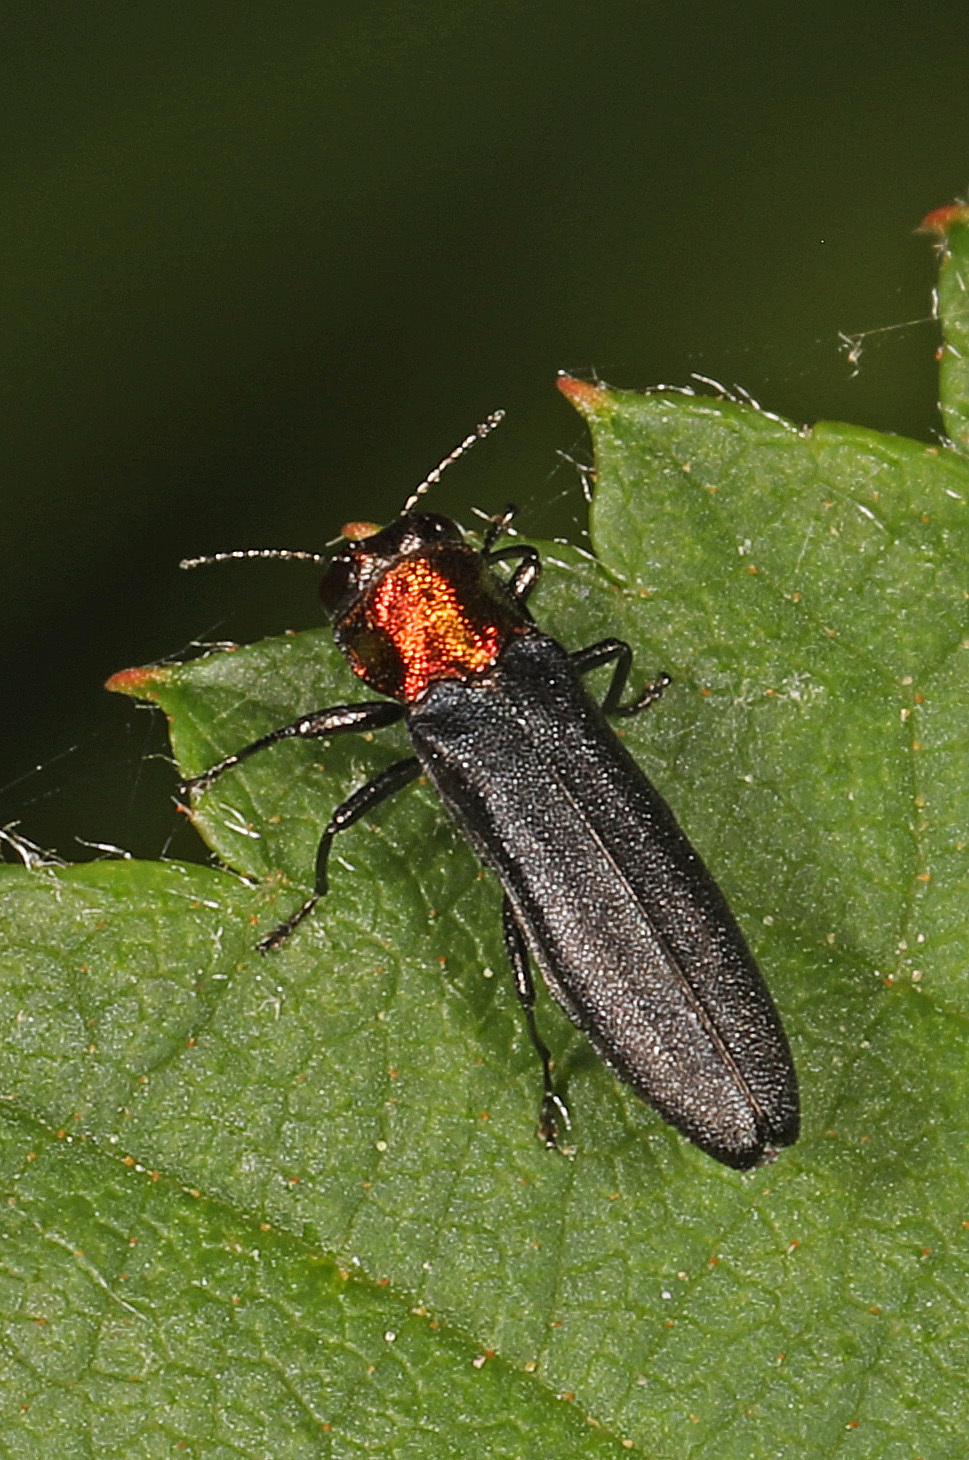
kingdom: Animalia
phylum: Arthropoda
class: Insecta
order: Coleoptera
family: Buprestidae
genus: Agrilus
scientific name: Agrilus ruficollis
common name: Red-necked cane borer beetle
